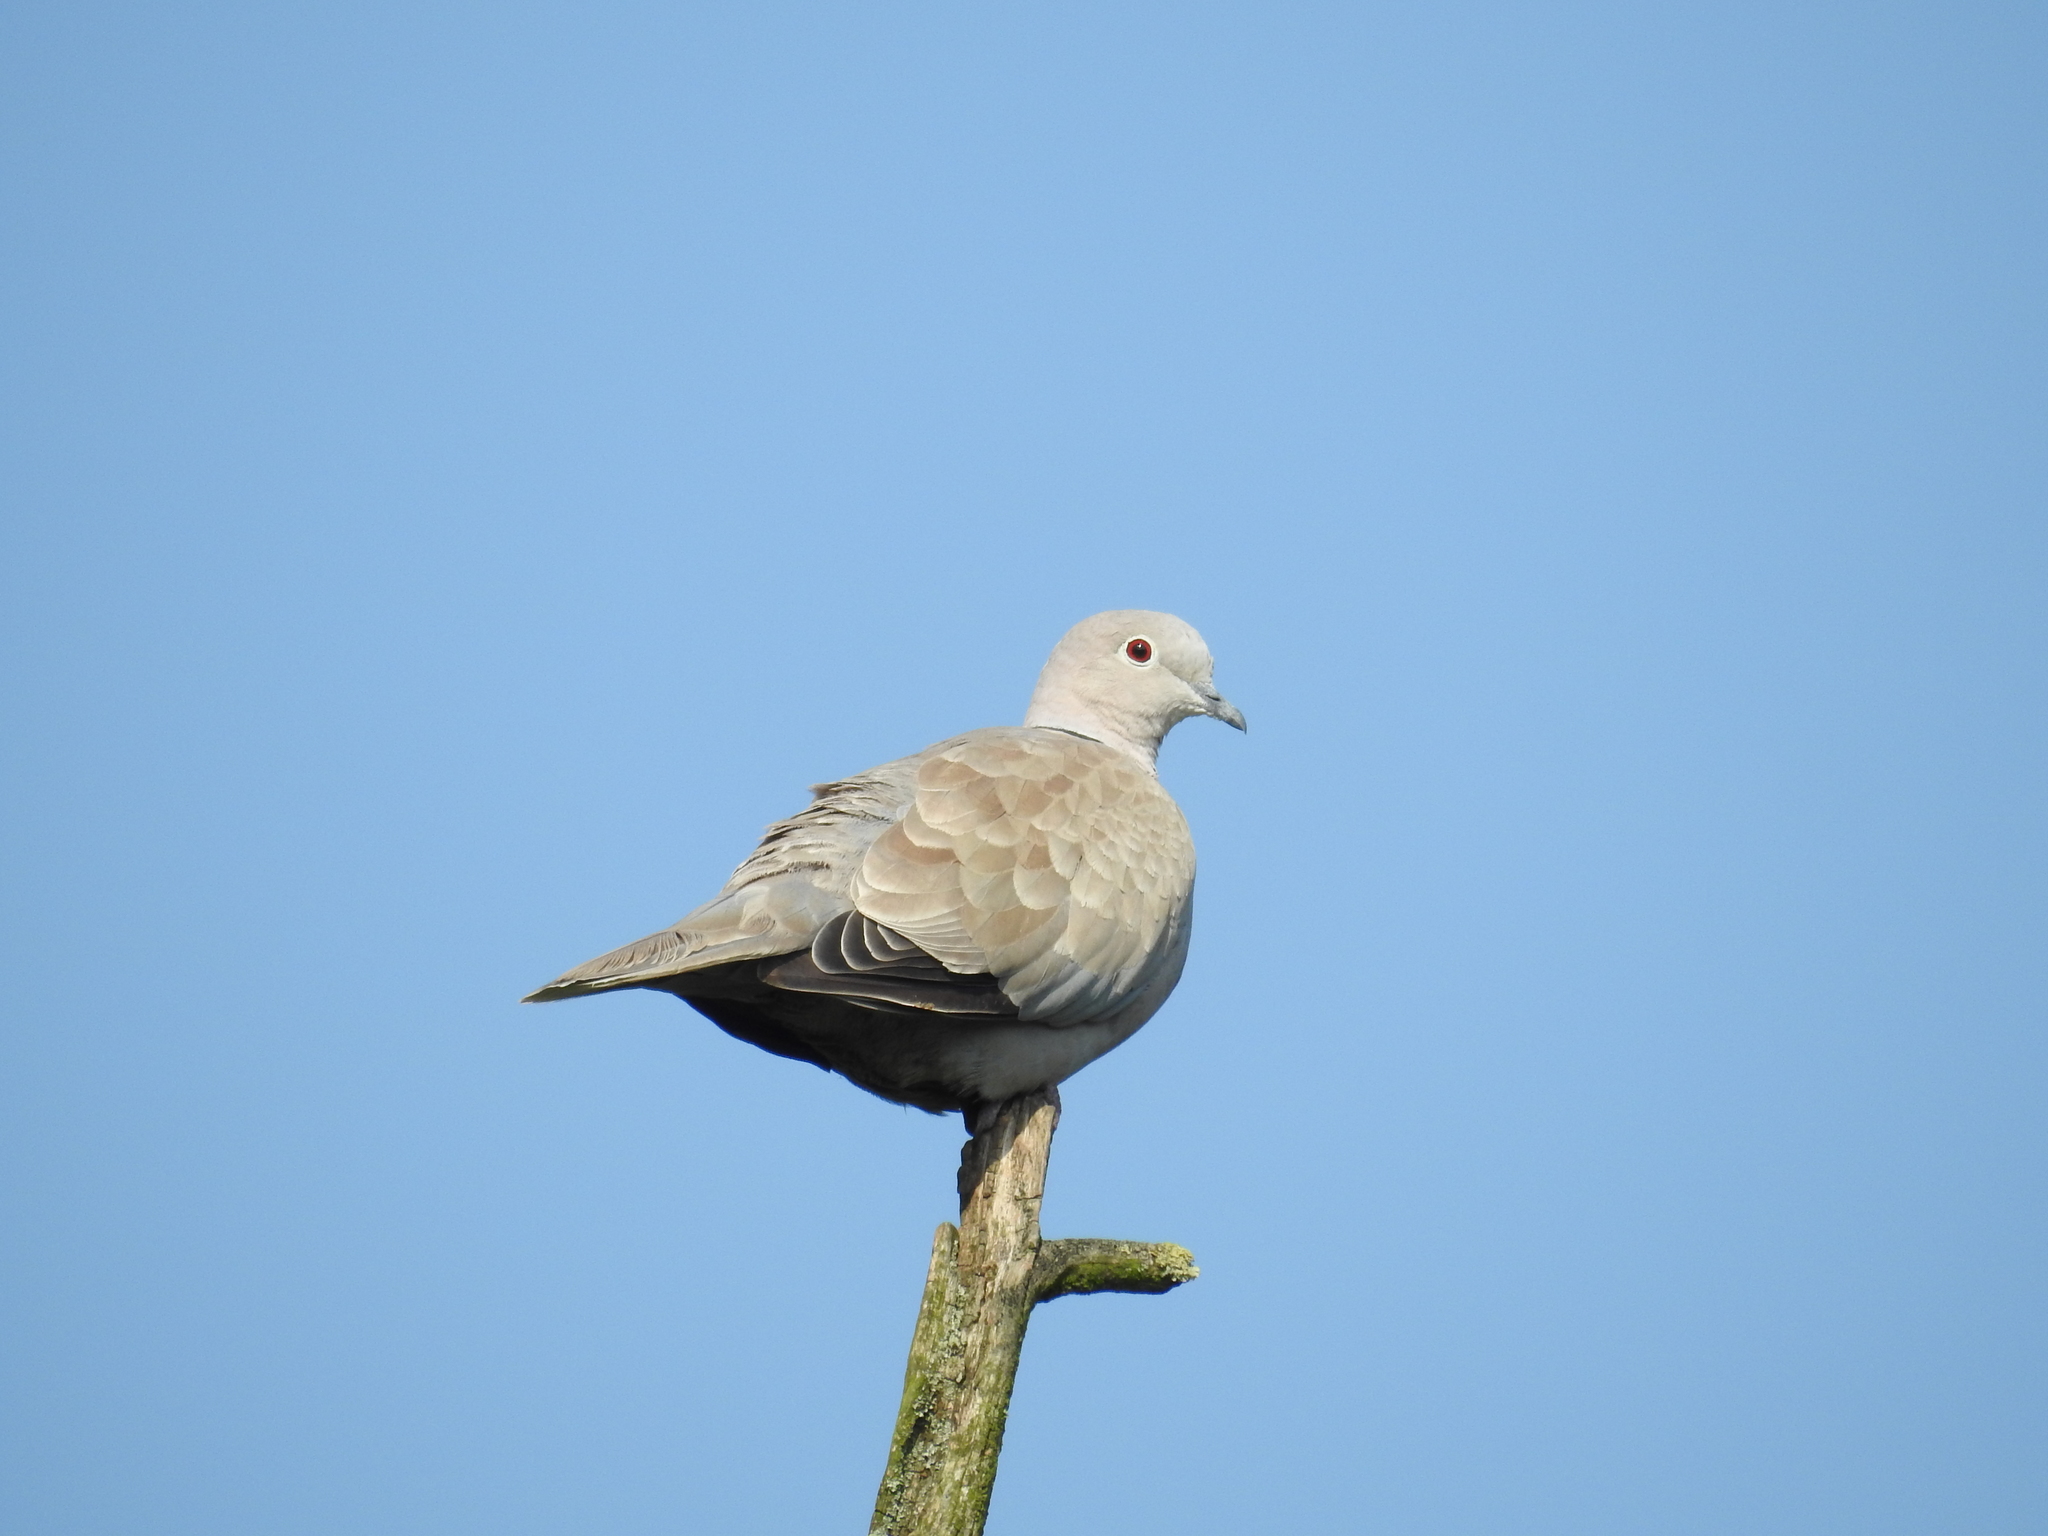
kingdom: Animalia
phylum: Chordata
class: Aves
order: Columbiformes
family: Columbidae
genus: Streptopelia
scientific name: Streptopelia decaocto
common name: Eurasian collared dove
